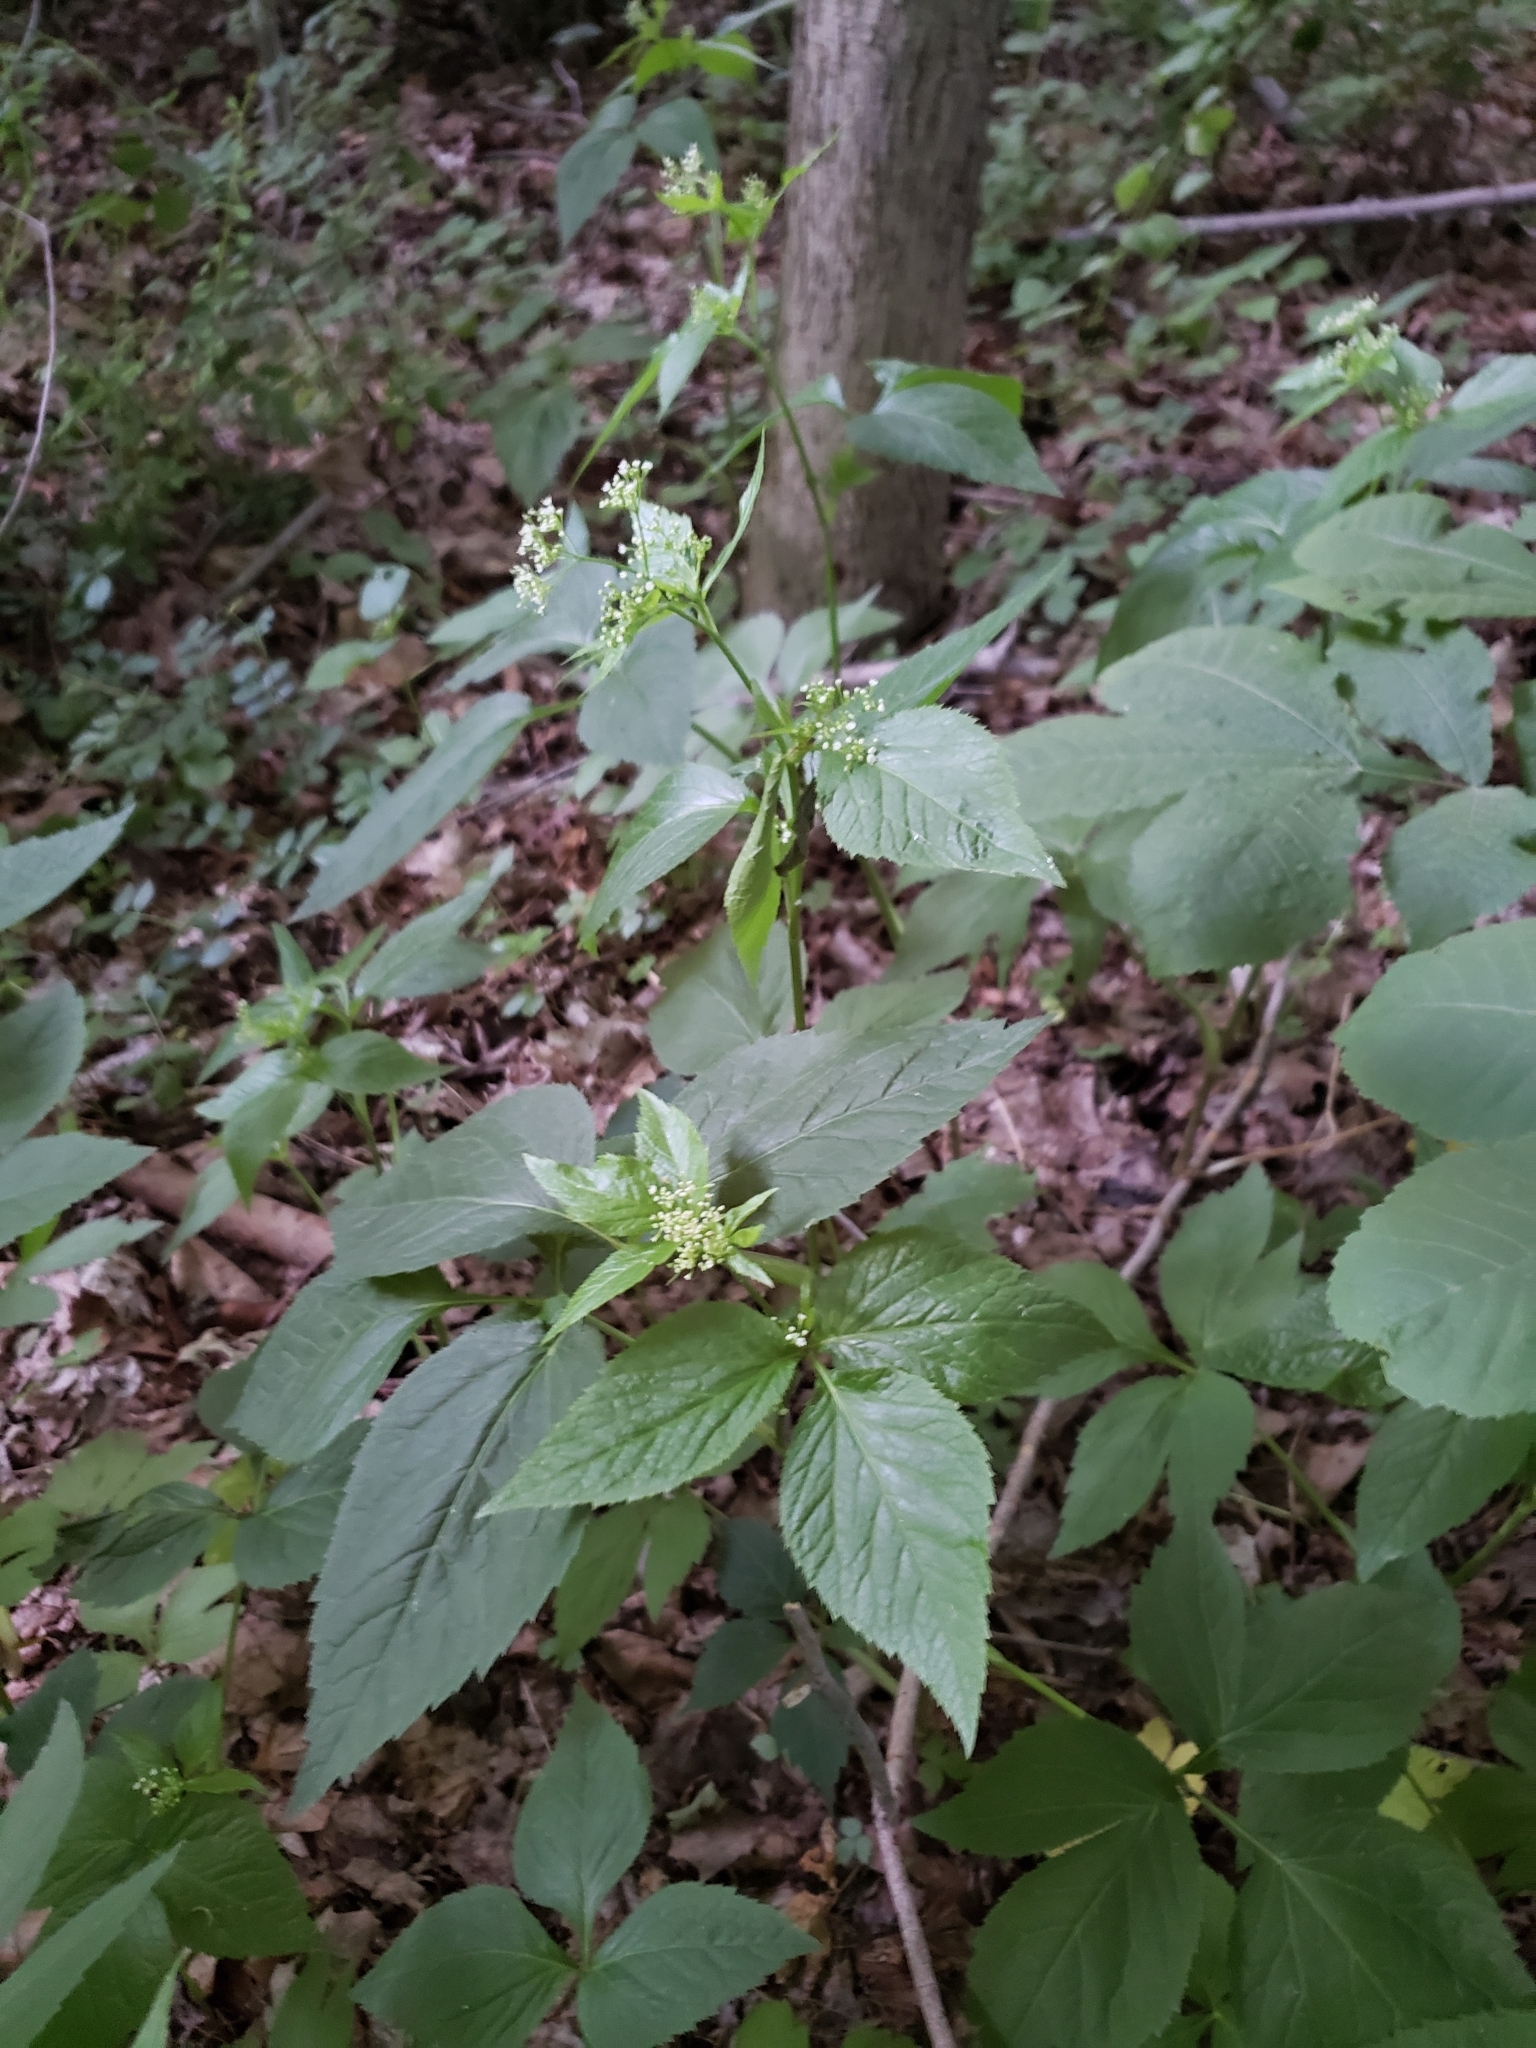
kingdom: Plantae
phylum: Tracheophyta
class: Magnoliopsida
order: Apiales
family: Apiaceae
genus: Cryptotaenia
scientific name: Cryptotaenia canadensis
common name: Honewort
